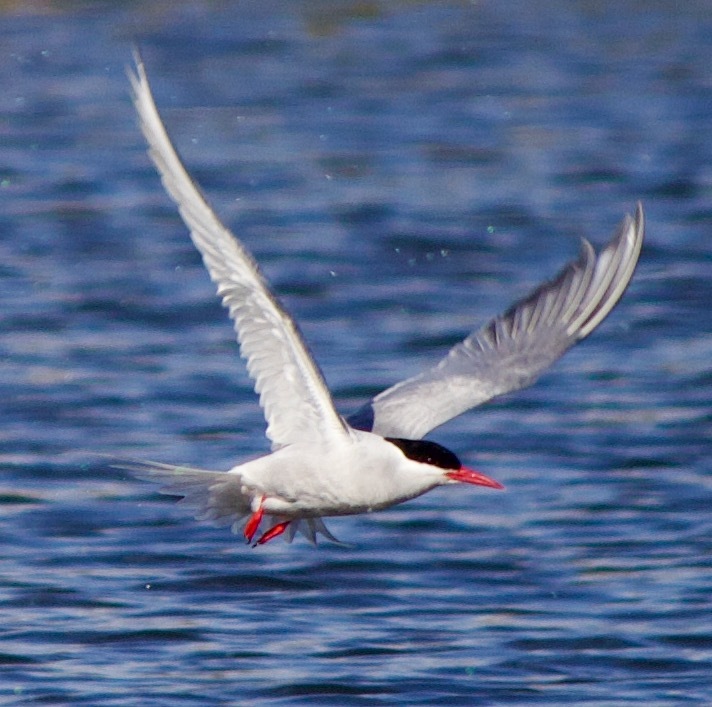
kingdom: Animalia
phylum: Chordata
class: Aves
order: Charadriiformes
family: Laridae
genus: Sterna
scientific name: Sterna hirundinacea
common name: South american tern
